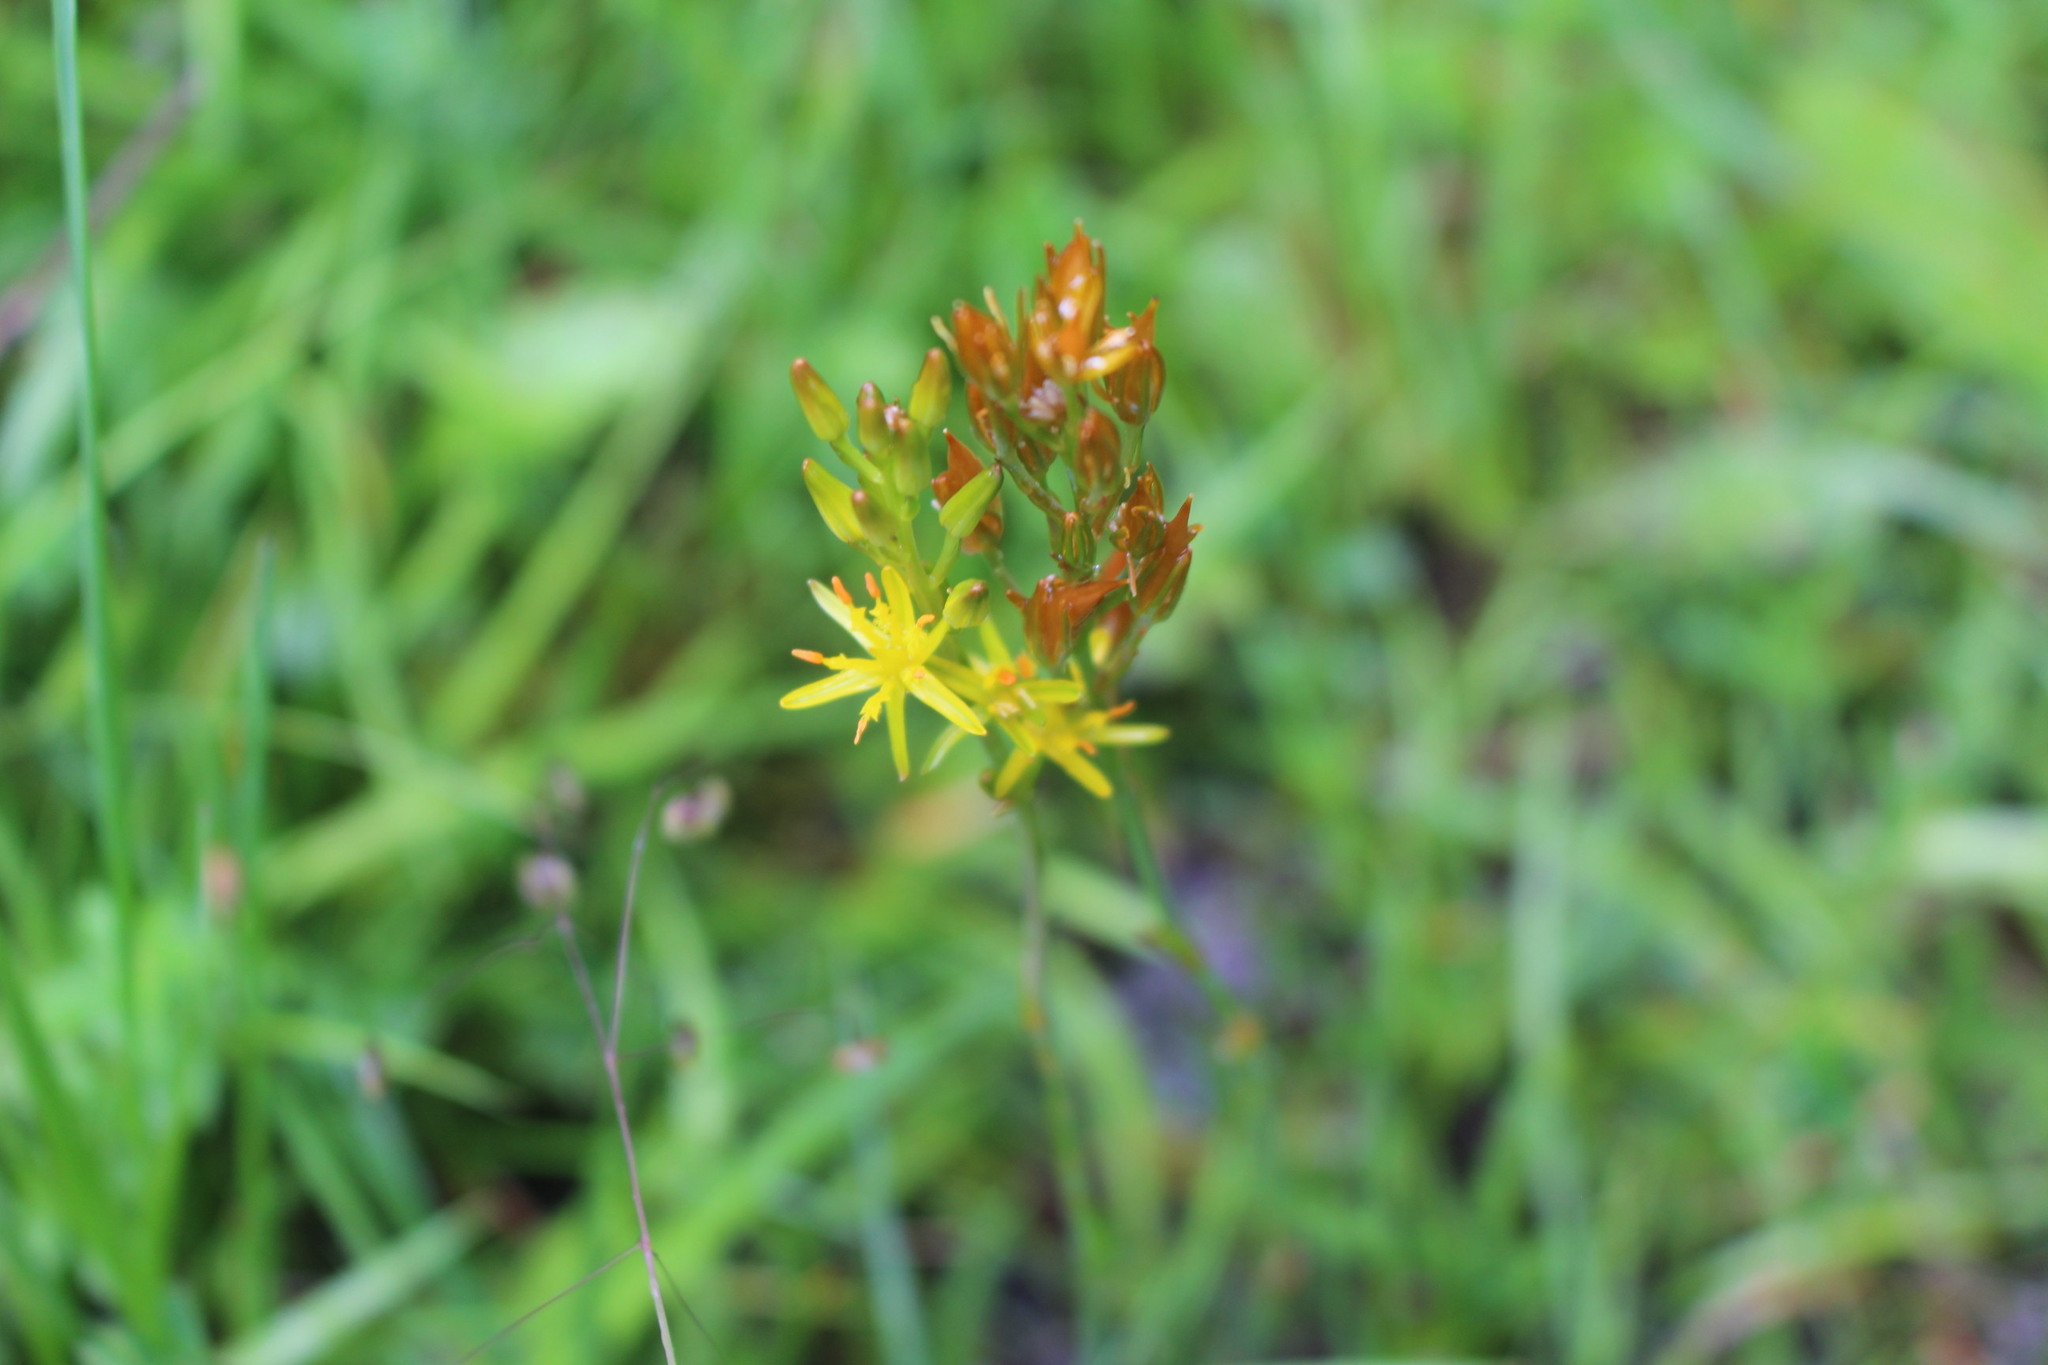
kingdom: Plantae
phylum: Tracheophyta
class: Liliopsida
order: Dioscoreales
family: Nartheciaceae
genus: Narthecium
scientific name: Narthecium ossifragum
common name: Bog asphodel
